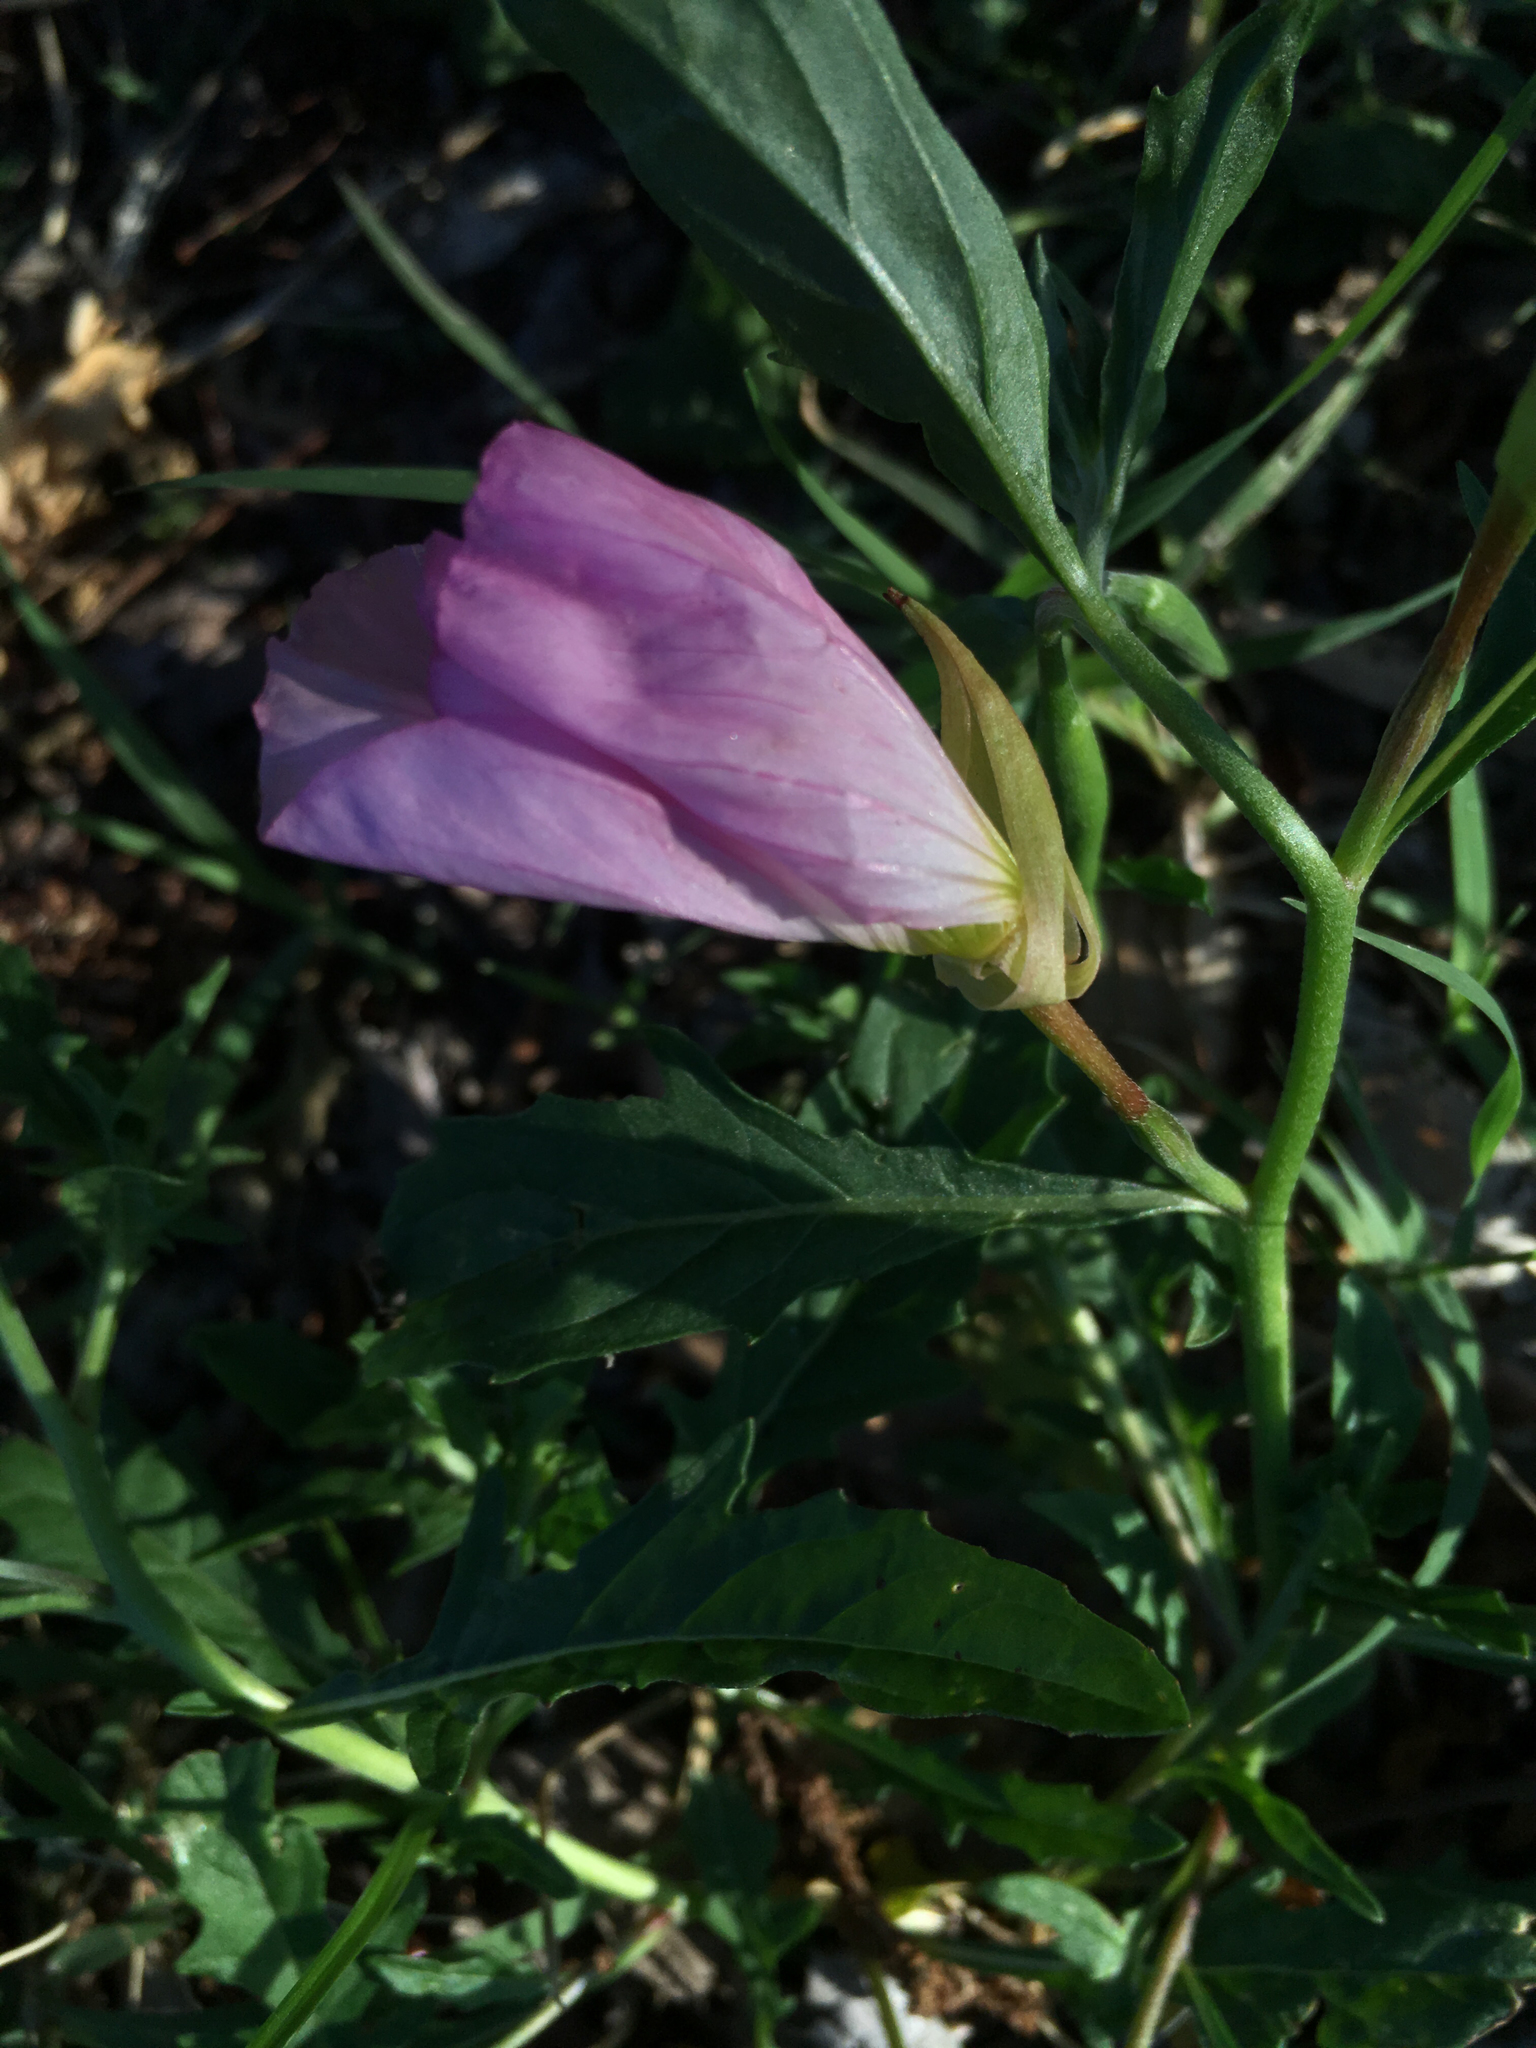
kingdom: Plantae
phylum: Tracheophyta
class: Magnoliopsida
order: Myrtales
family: Onagraceae
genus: Oenothera
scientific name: Oenothera speciosa
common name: White evening-primrose
